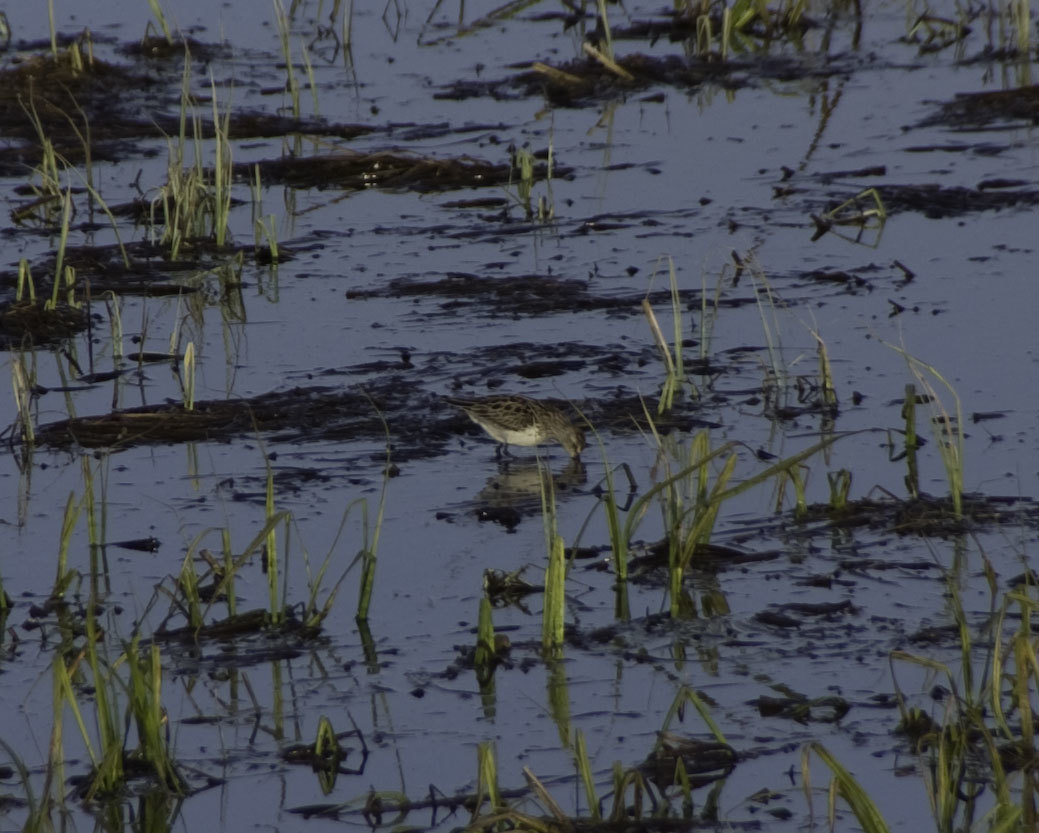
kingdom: Animalia
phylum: Chordata
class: Aves
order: Charadriiformes
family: Scolopacidae
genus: Calidris
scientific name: Calidris minutilla
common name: Least sandpiper
